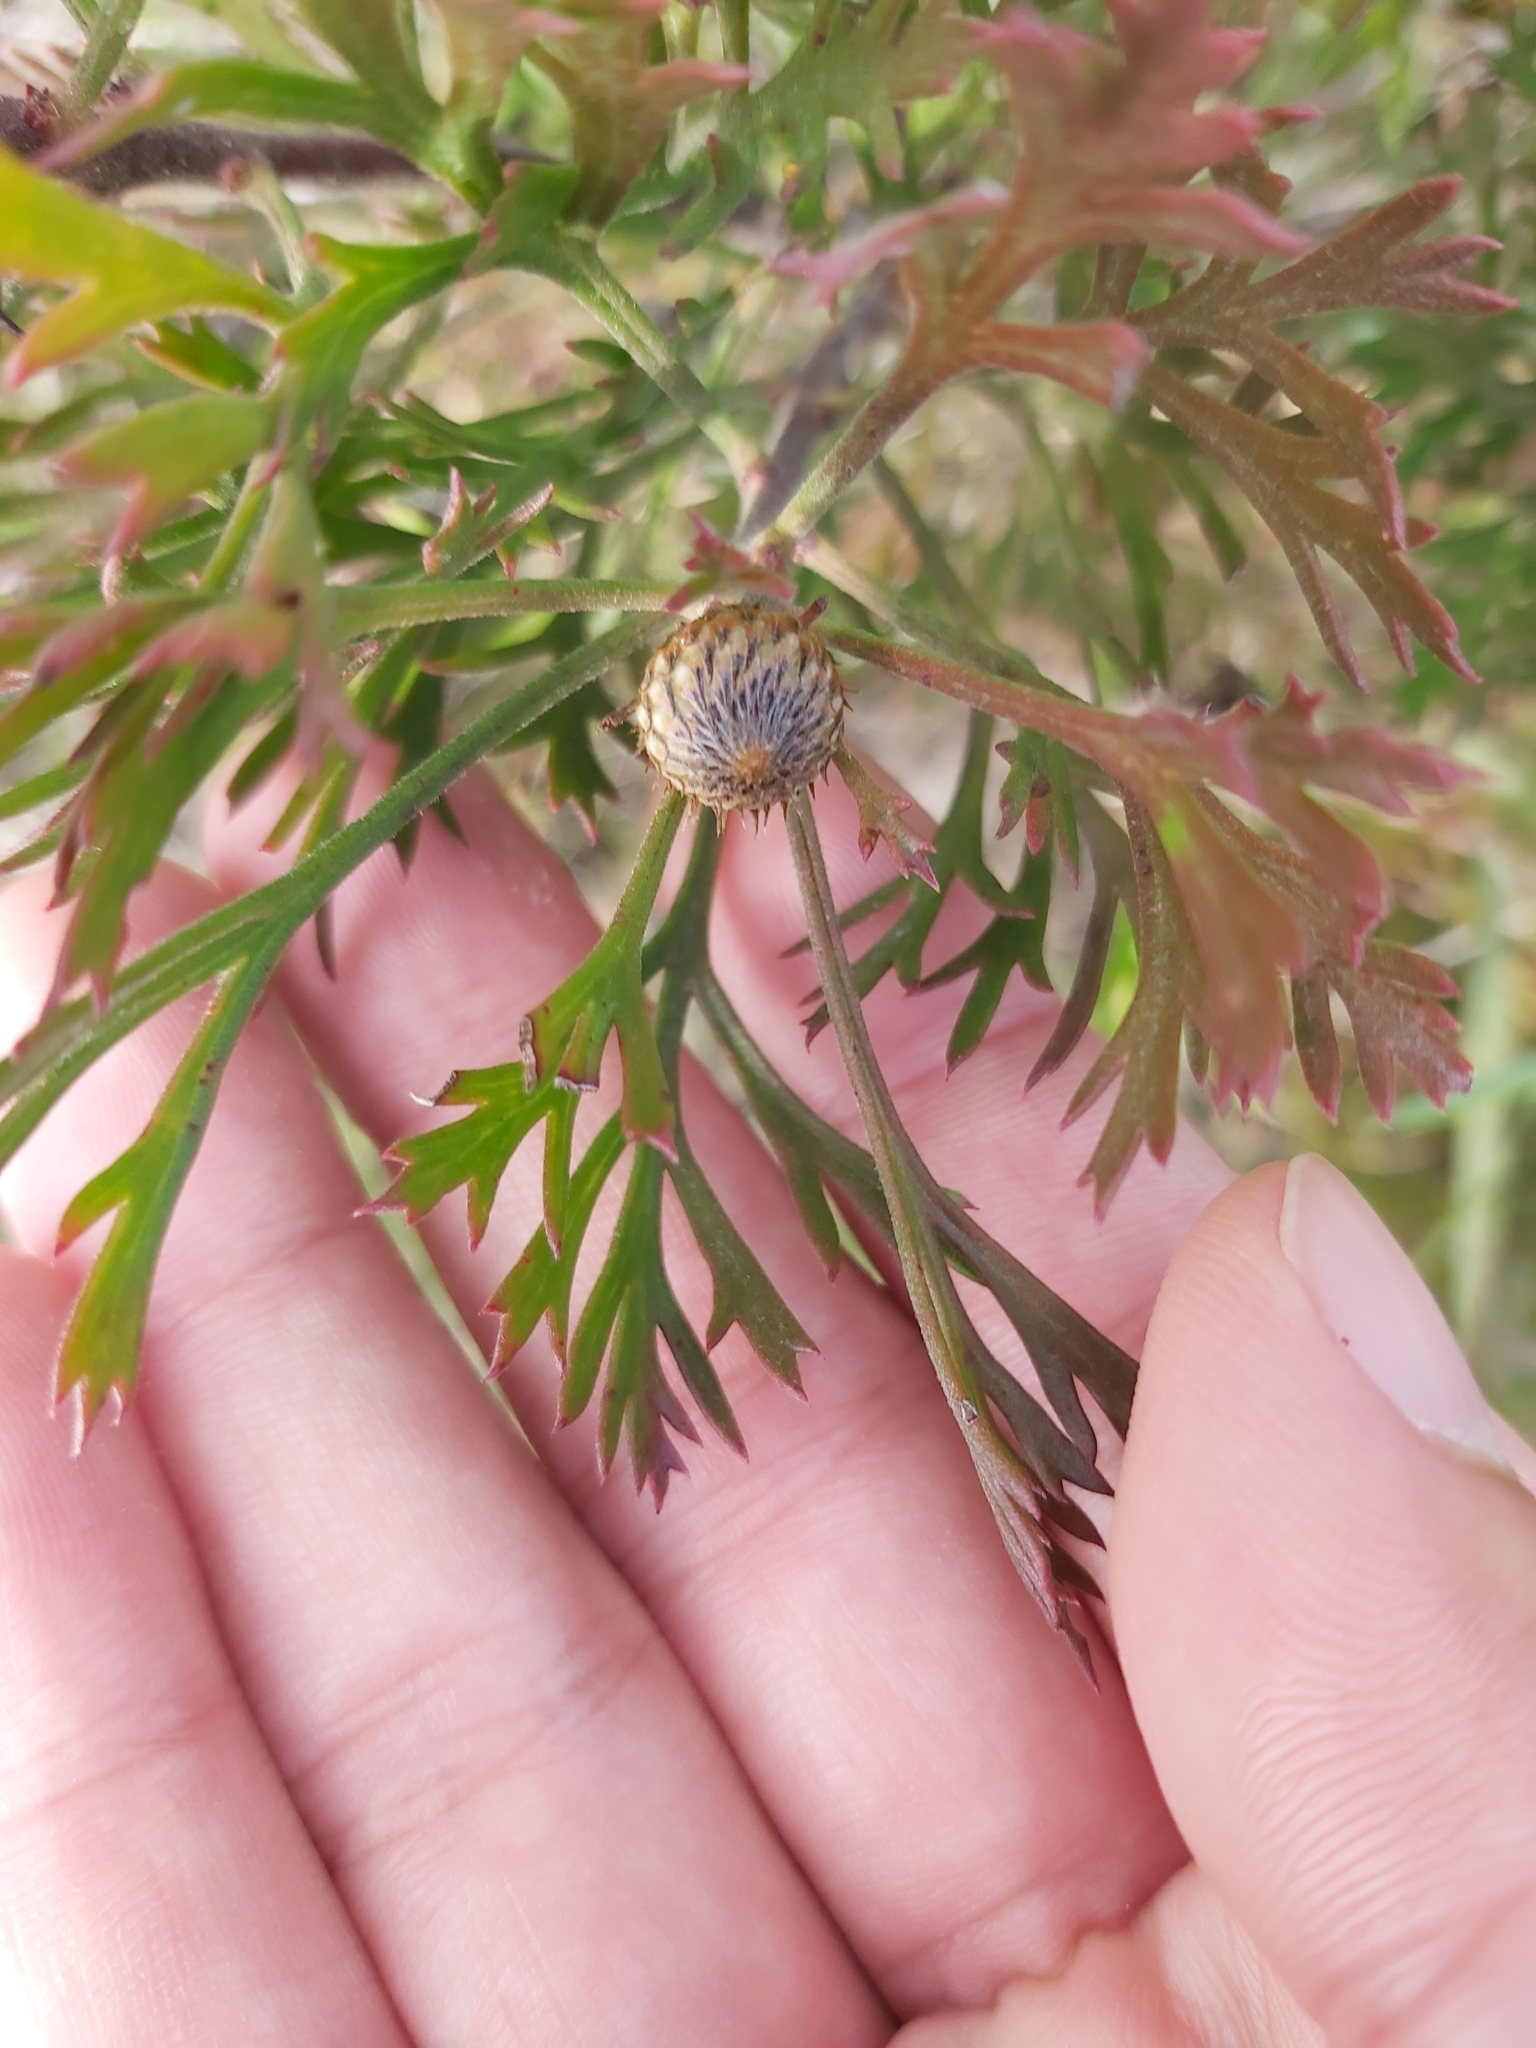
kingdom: Plantae
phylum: Tracheophyta
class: Magnoliopsida
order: Proteales
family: Proteaceae
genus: Isopogon
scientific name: Isopogon anemonifolius
